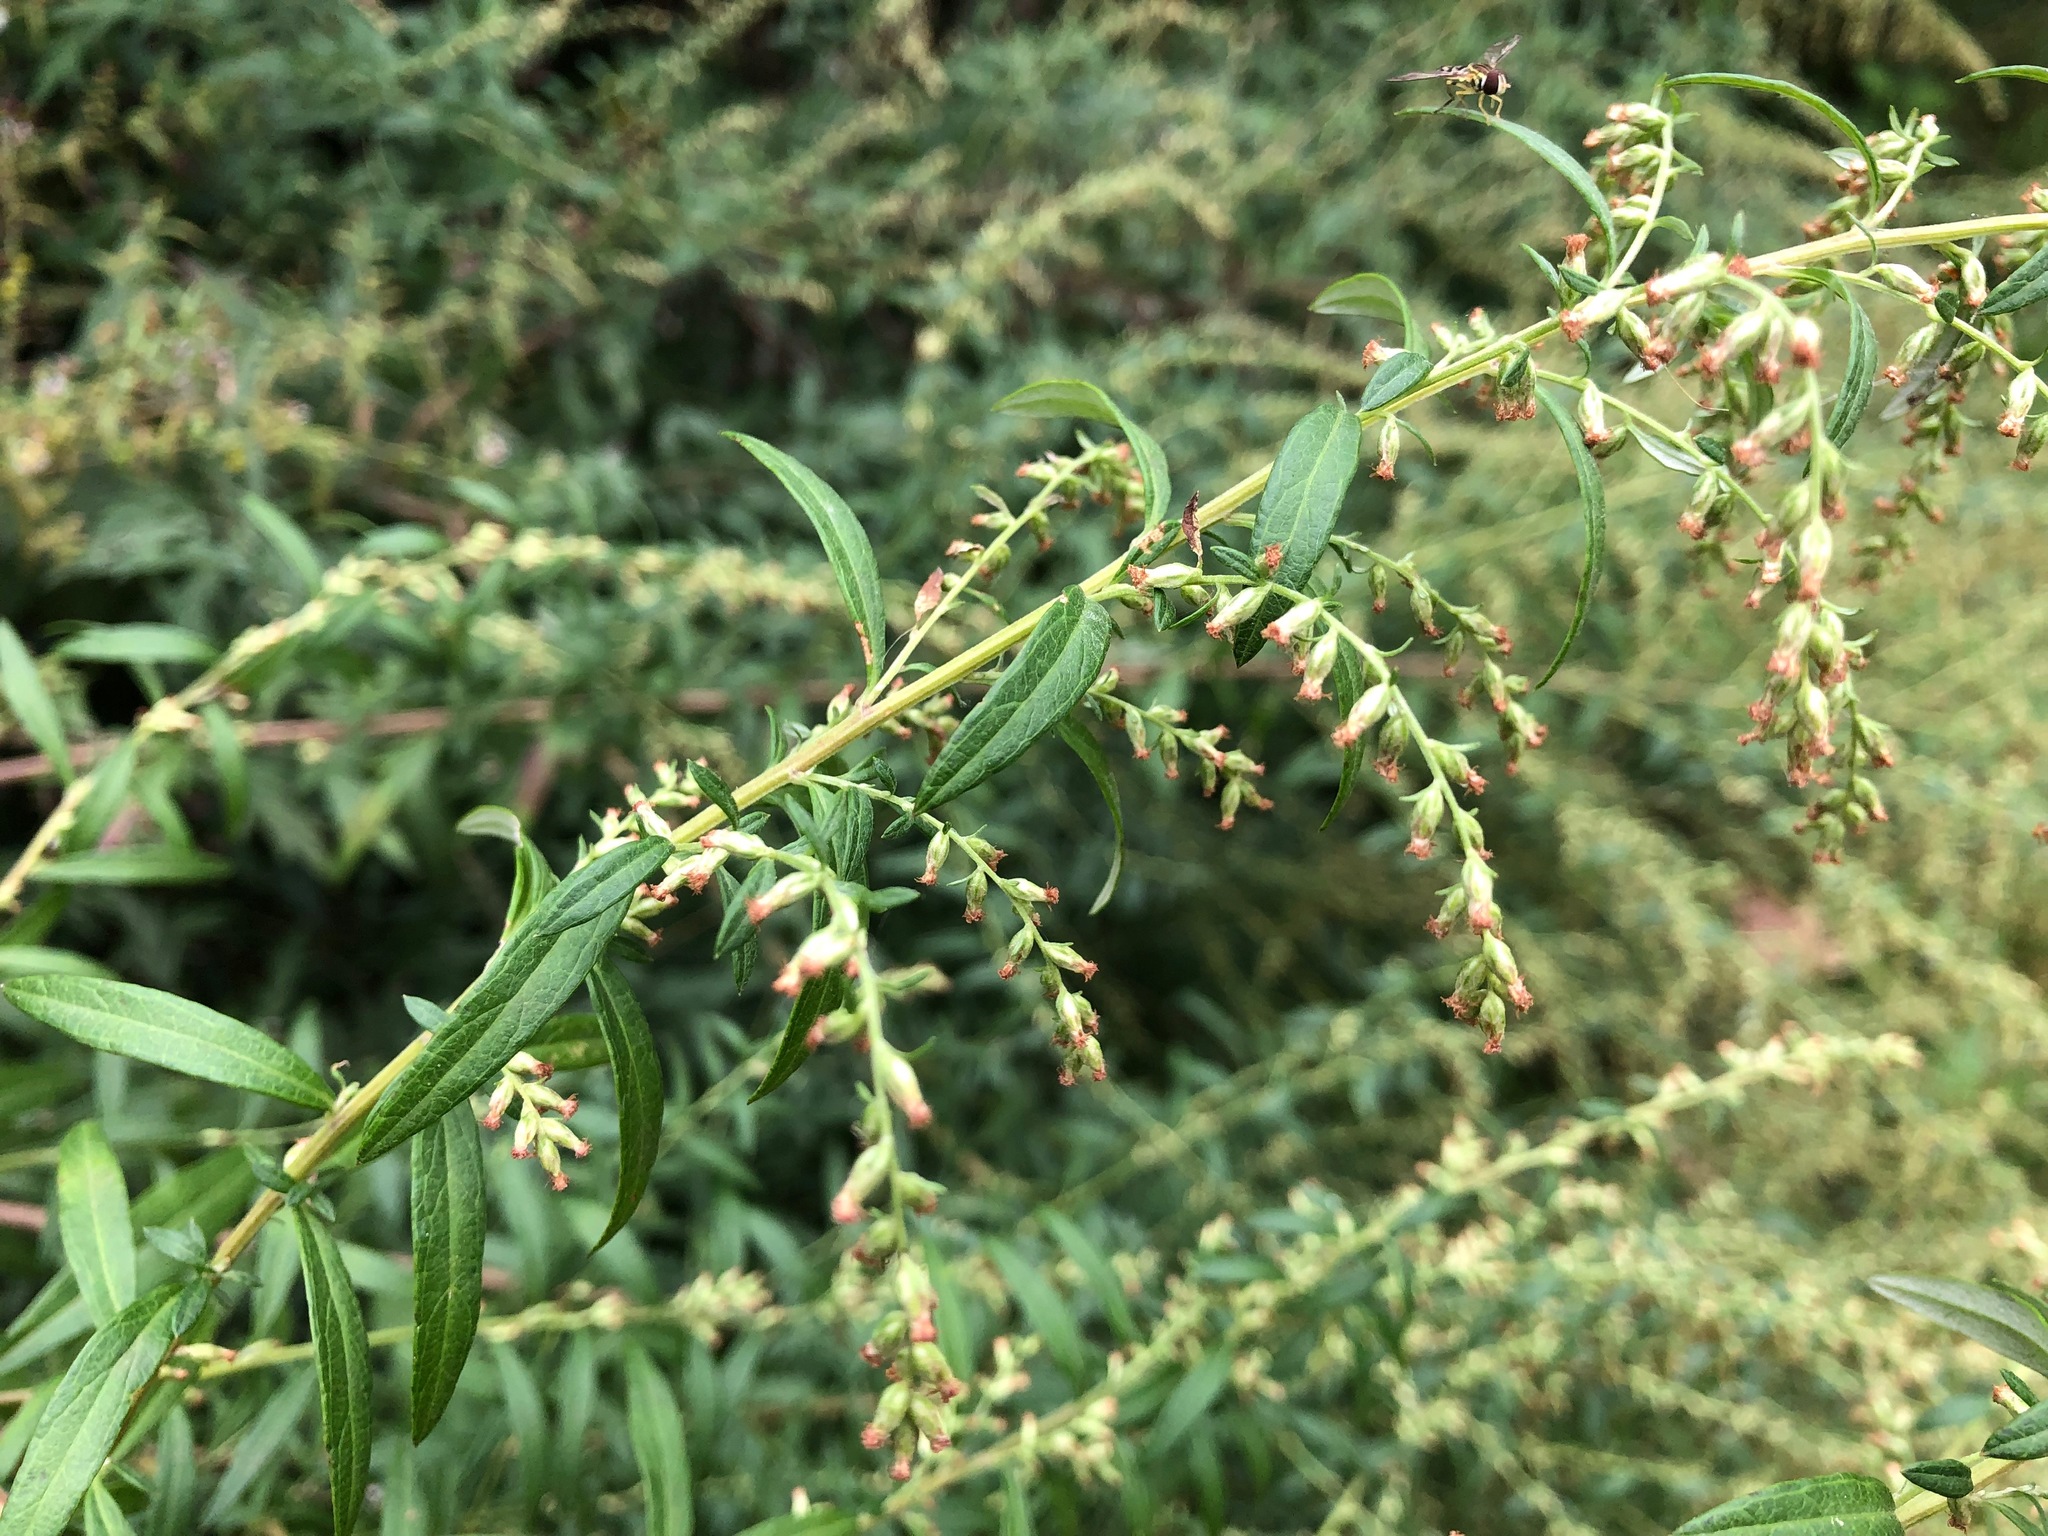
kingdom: Plantae
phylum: Tracheophyta
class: Magnoliopsida
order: Asterales
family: Asteraceae
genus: Artemisia
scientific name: Artemisia vulgaris
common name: Mugwort
